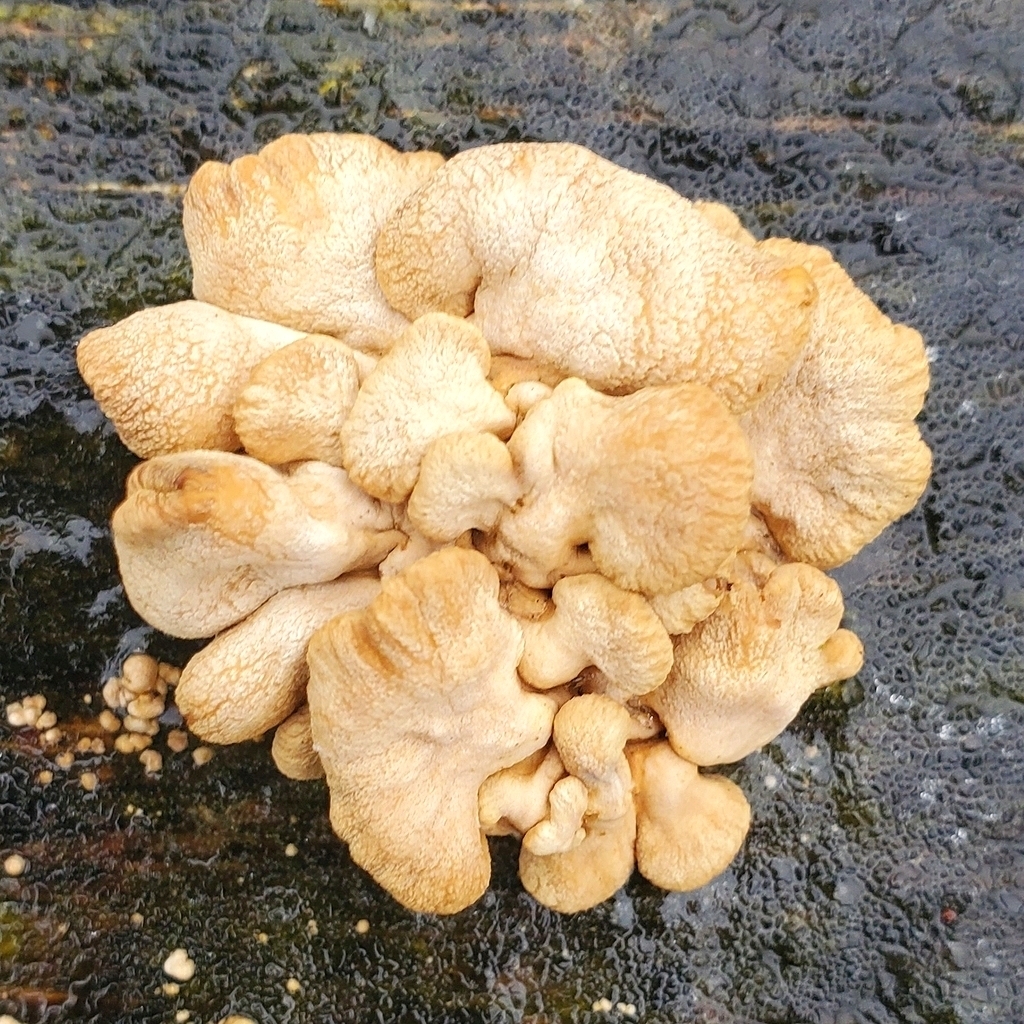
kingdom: Fungi
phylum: Basidiomycota
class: Agaricomycetes
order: Agaricales
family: Mycenaceae
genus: Panellus
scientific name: Panellus stipticus
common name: Bitter oysterling
